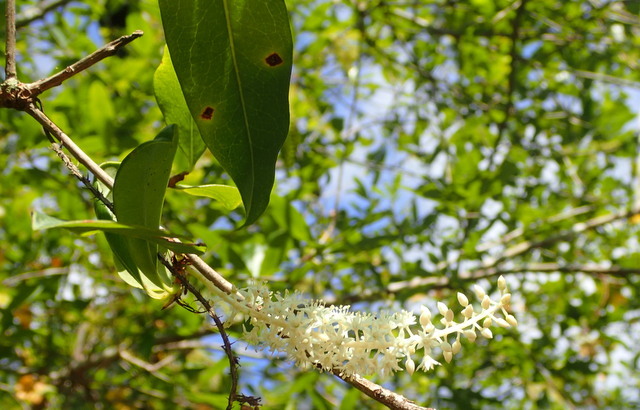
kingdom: Plantae
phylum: Tracheophyta
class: Magnoliopsida
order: Ericales
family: Cyrillaceae
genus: Cyrilla
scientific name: Cyrilla racemiflora
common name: Black titi
